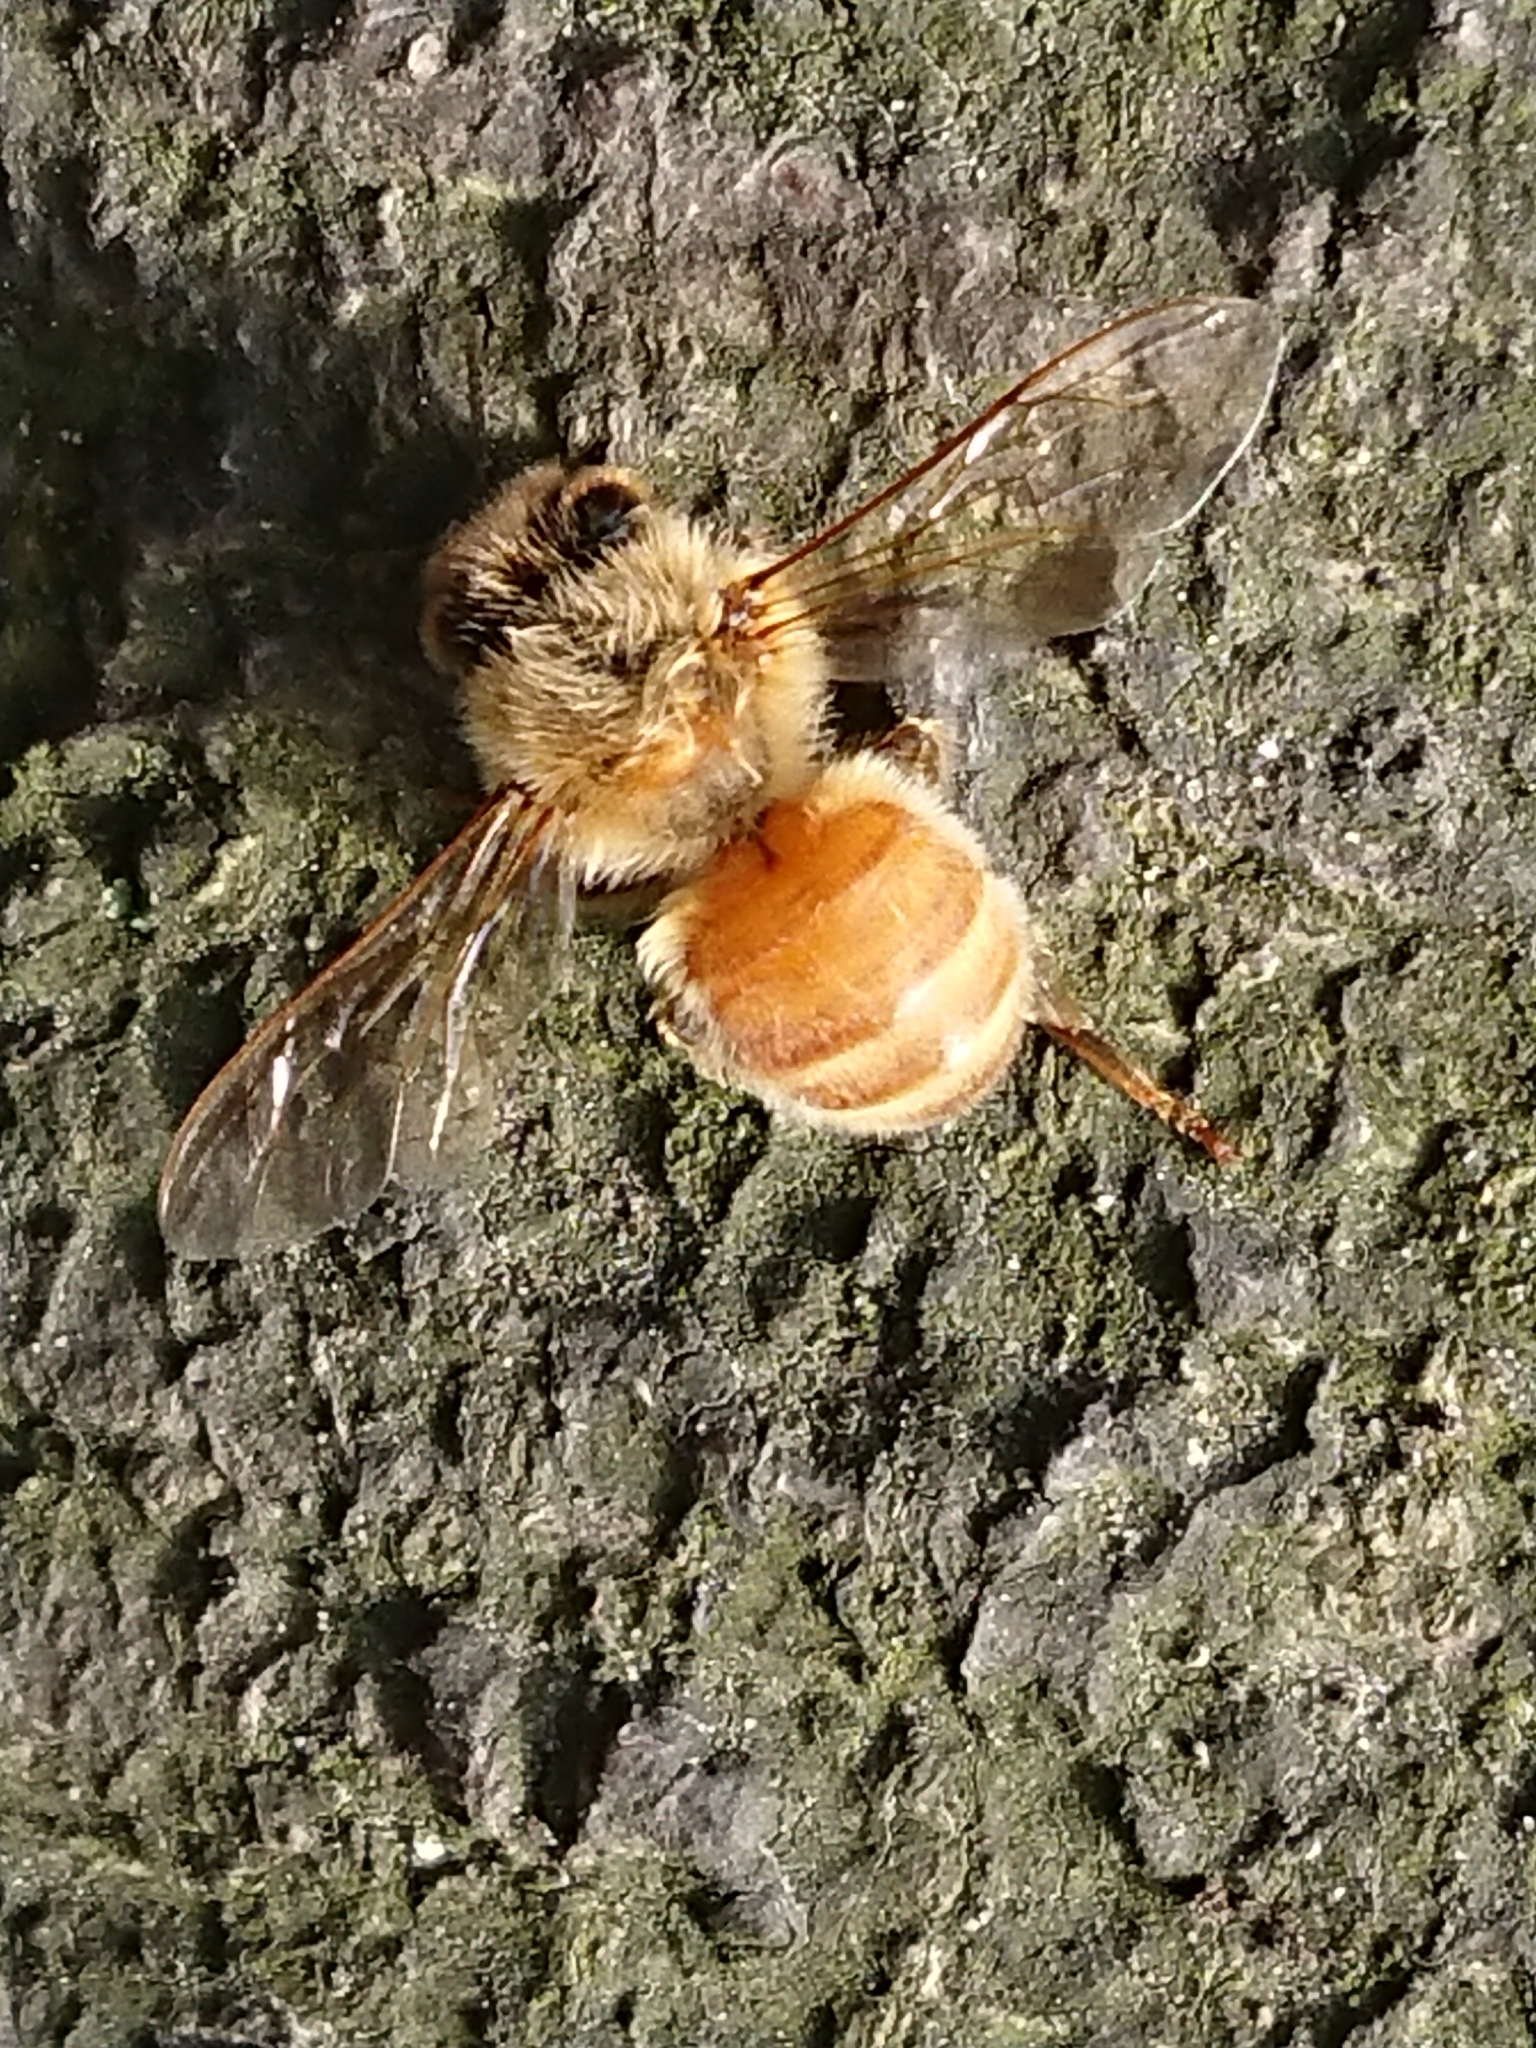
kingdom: Animalia
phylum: Arthropoda
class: Insecta
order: Hymenoptera
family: Apidae
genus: Apis
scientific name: Apis mellifera
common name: Honey bee
